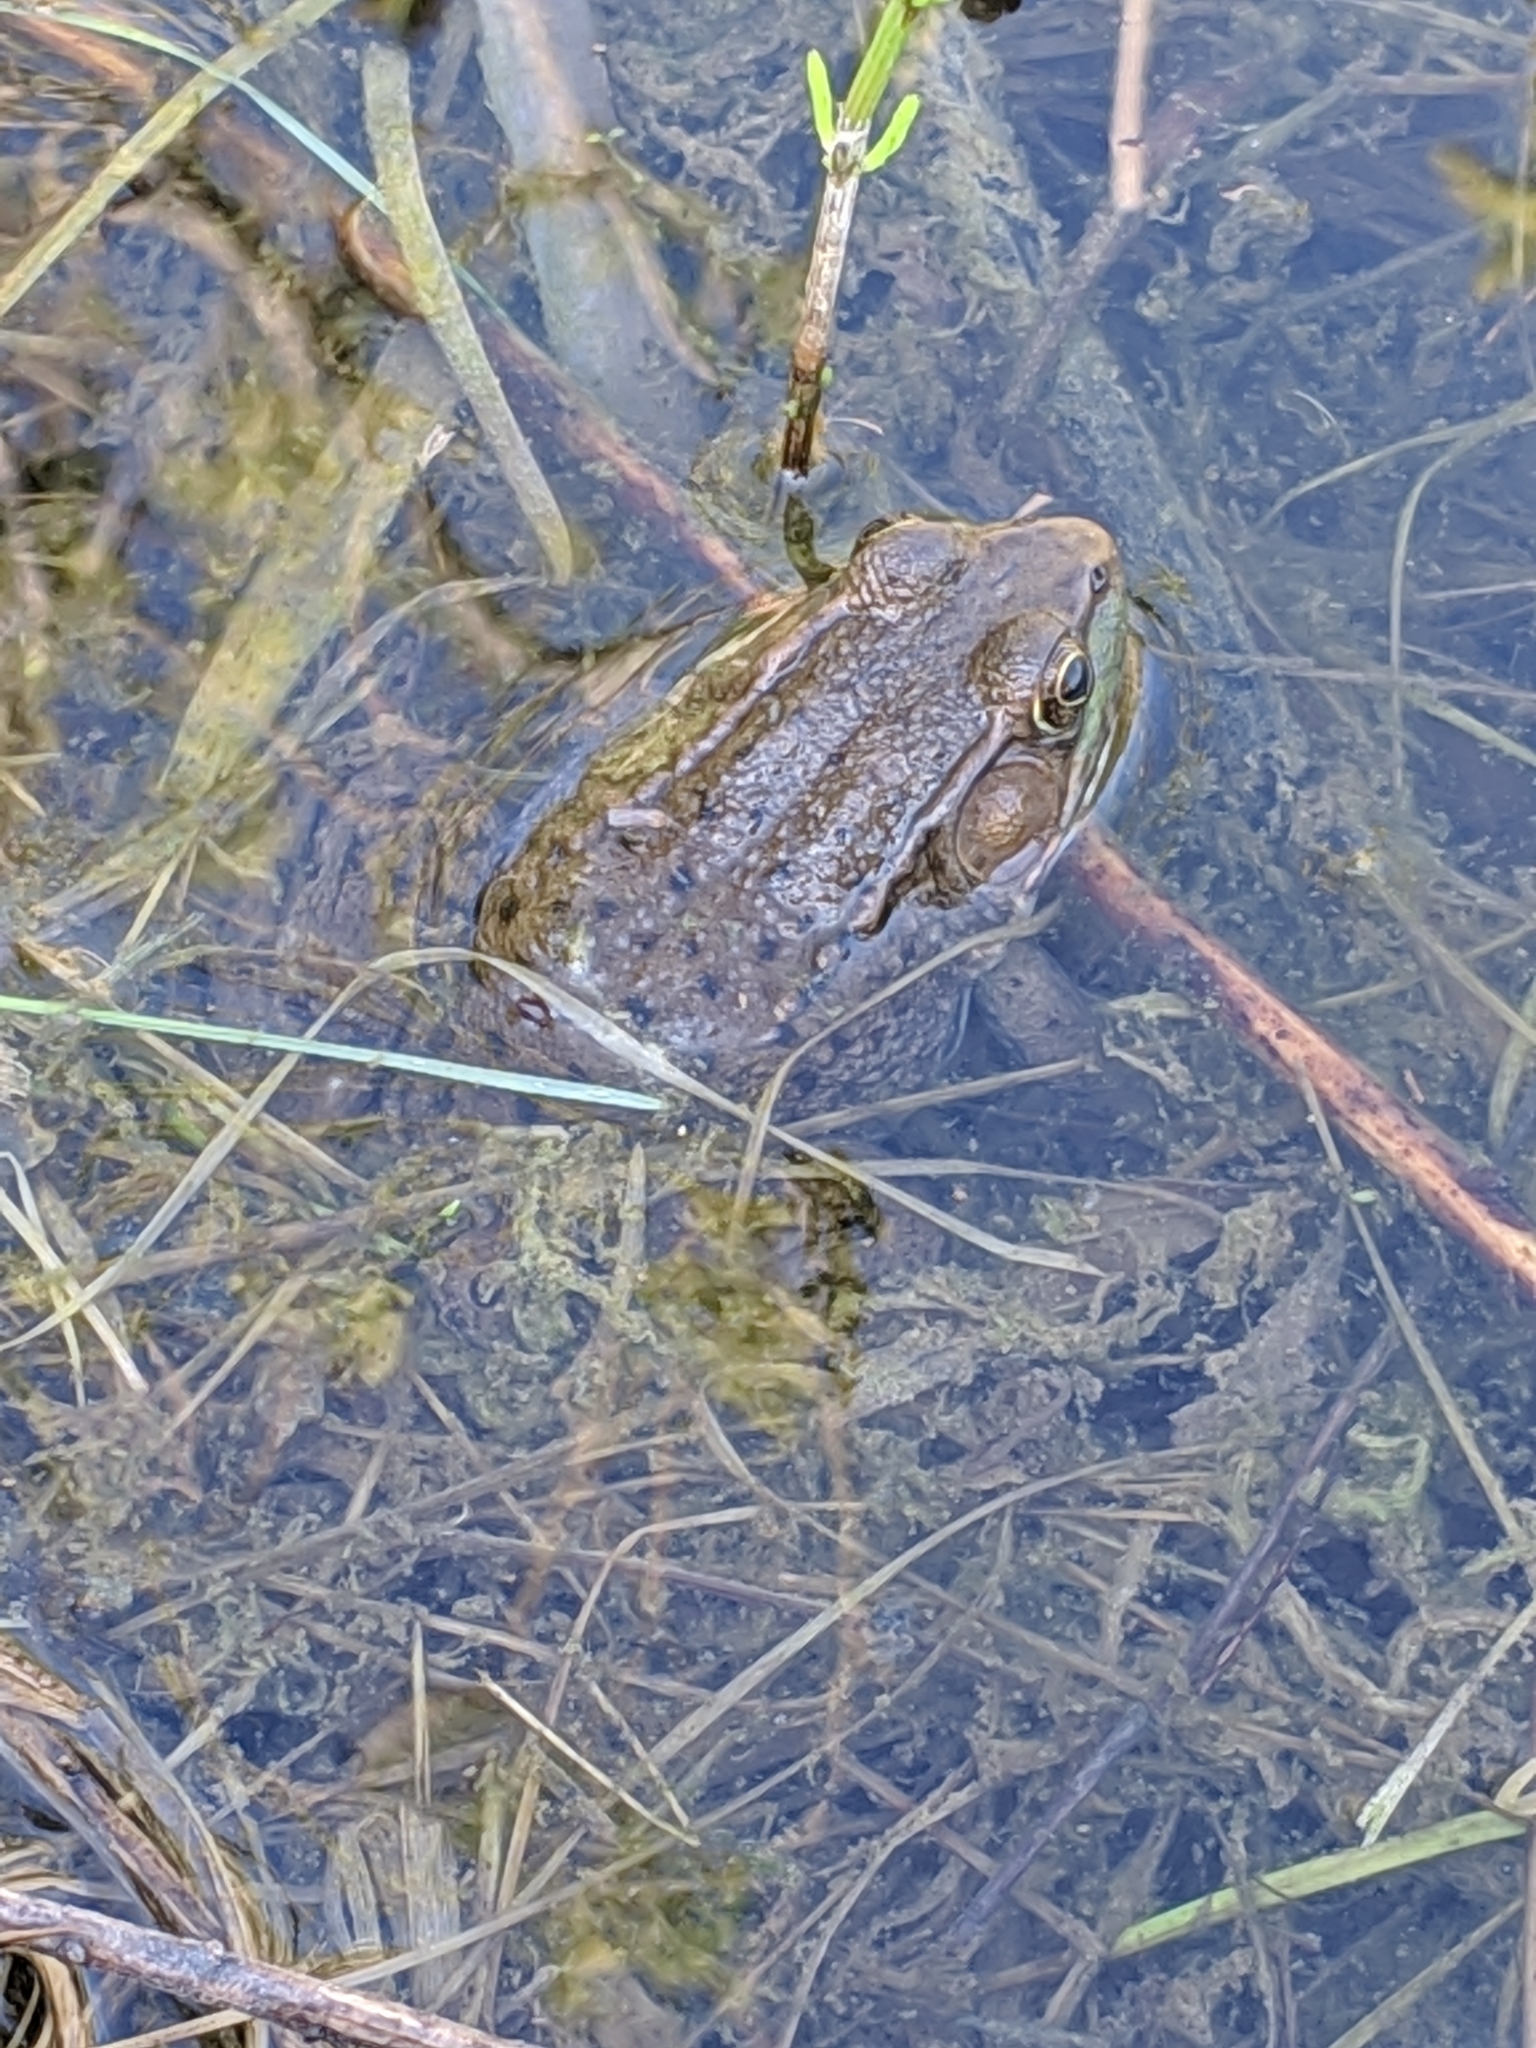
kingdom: Animalia
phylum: Chordata
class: Amphibia
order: Anura
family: Ranidae
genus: Lithobates
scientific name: Lithobates clamitans
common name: Green frog
